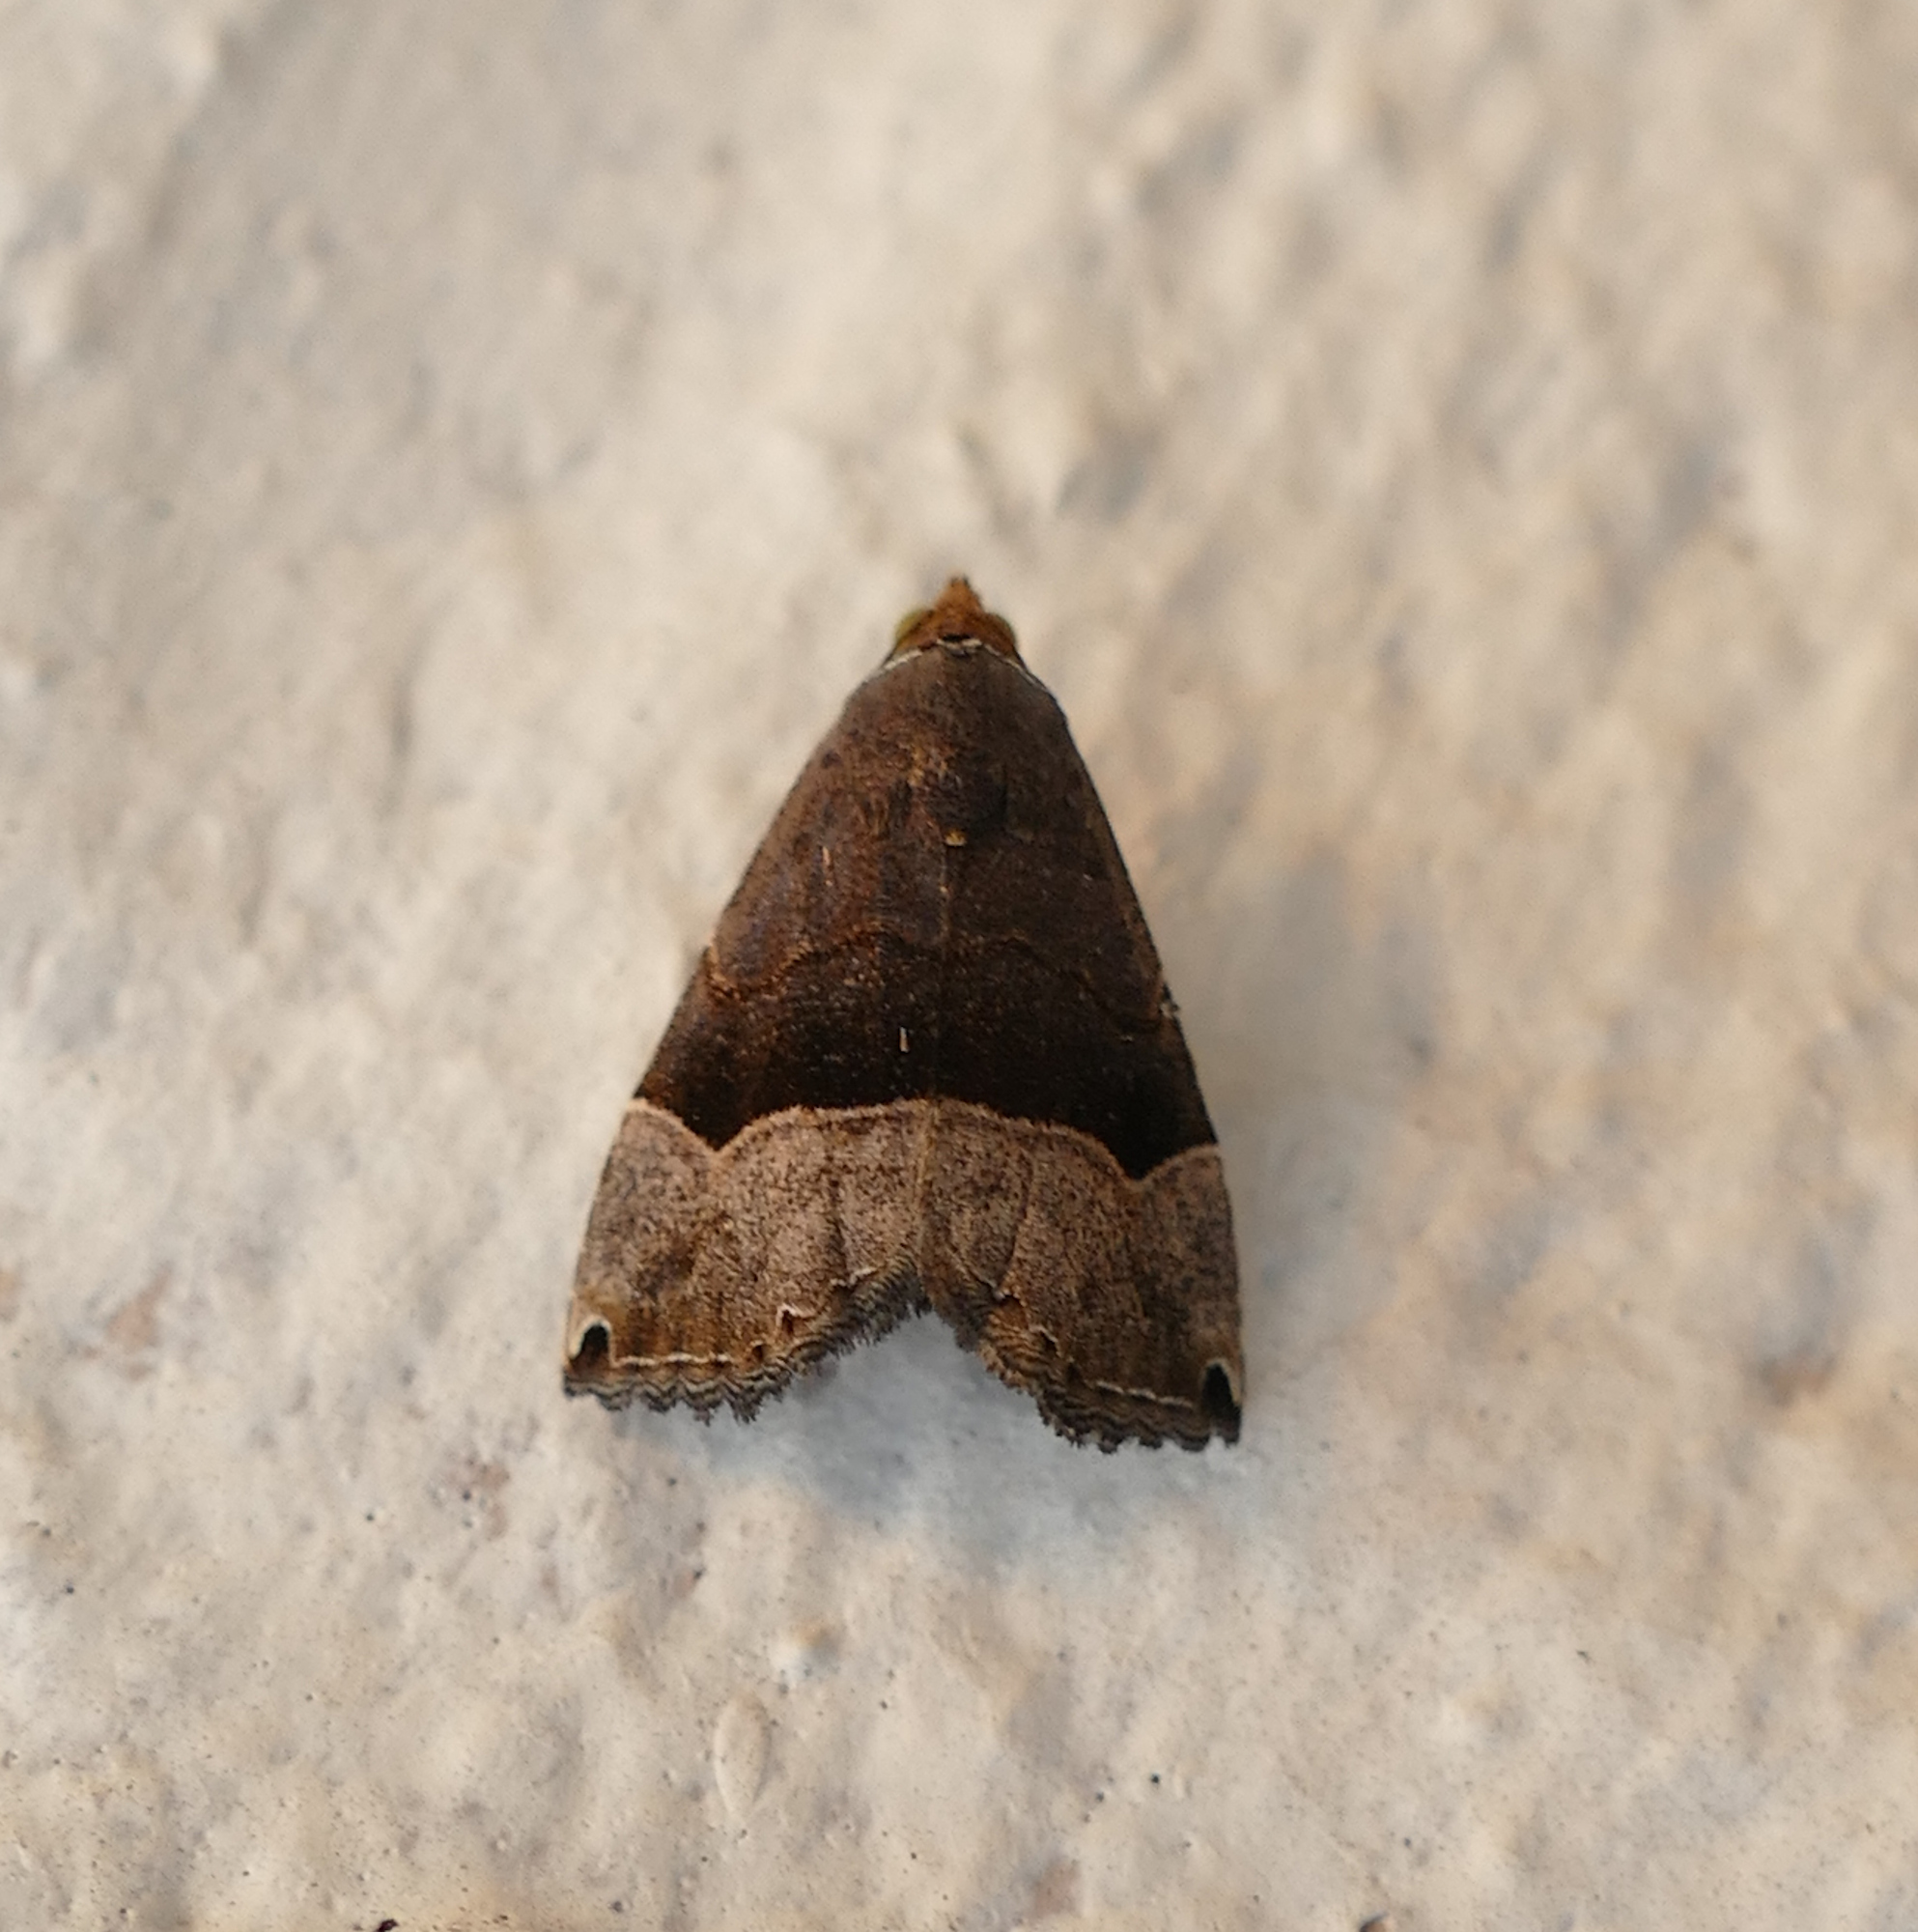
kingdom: Animalia
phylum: Arthropoda
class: Insecta
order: Lepidoptera
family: Noctuidae
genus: Abacena
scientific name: Abacena mundula
